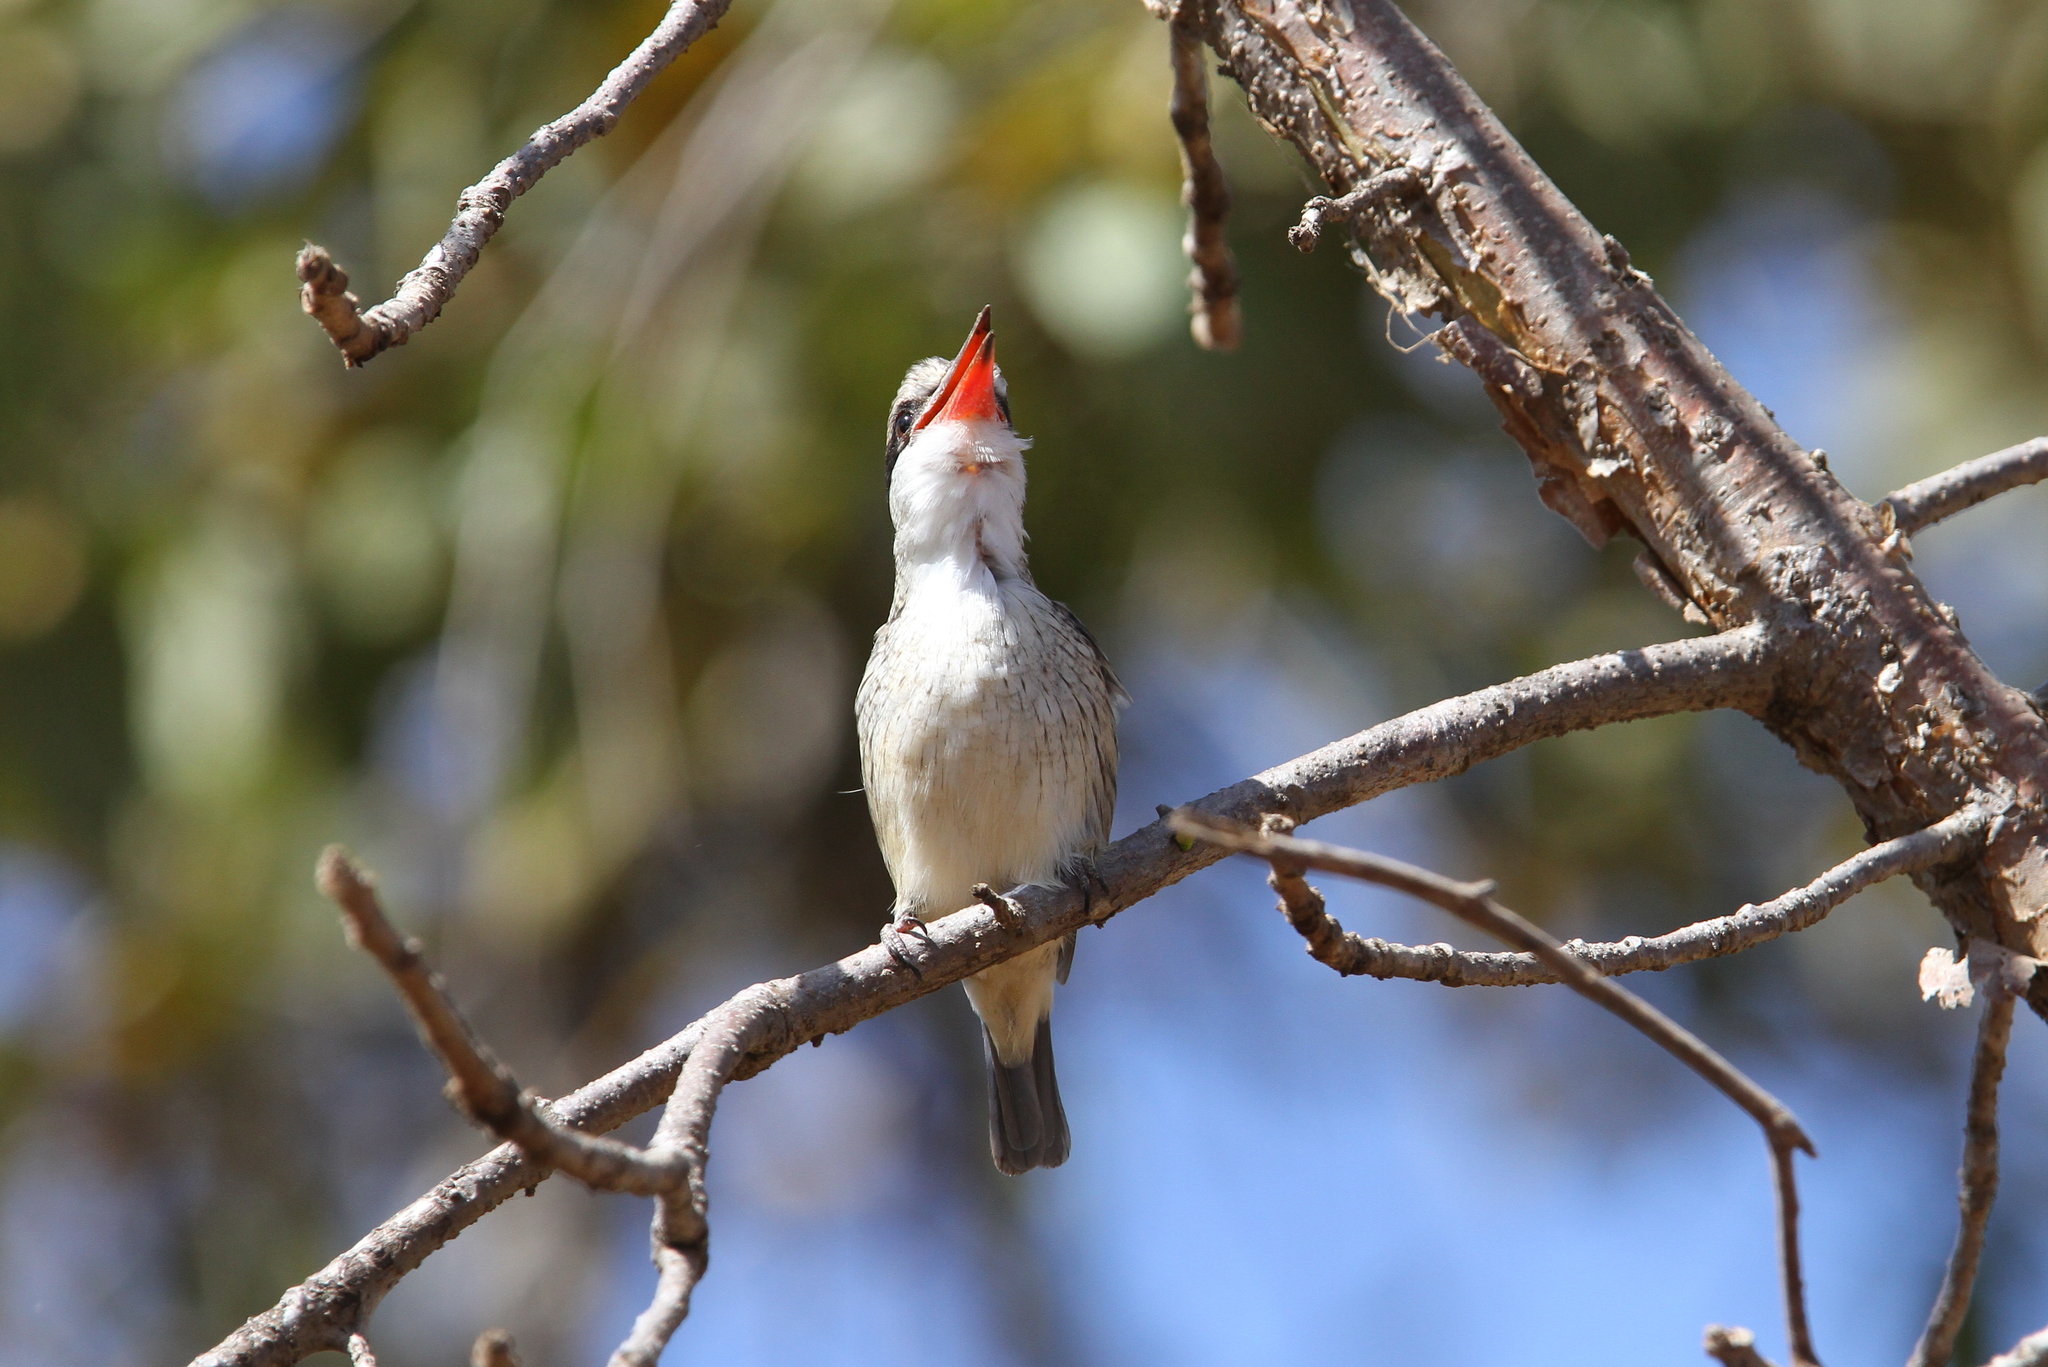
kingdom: Animalia
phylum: Chordata
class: Aves
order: Coraciiformes
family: Alcedinidae
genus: Halcyon
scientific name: Halcyon chelicuti
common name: Striped kingfisher
